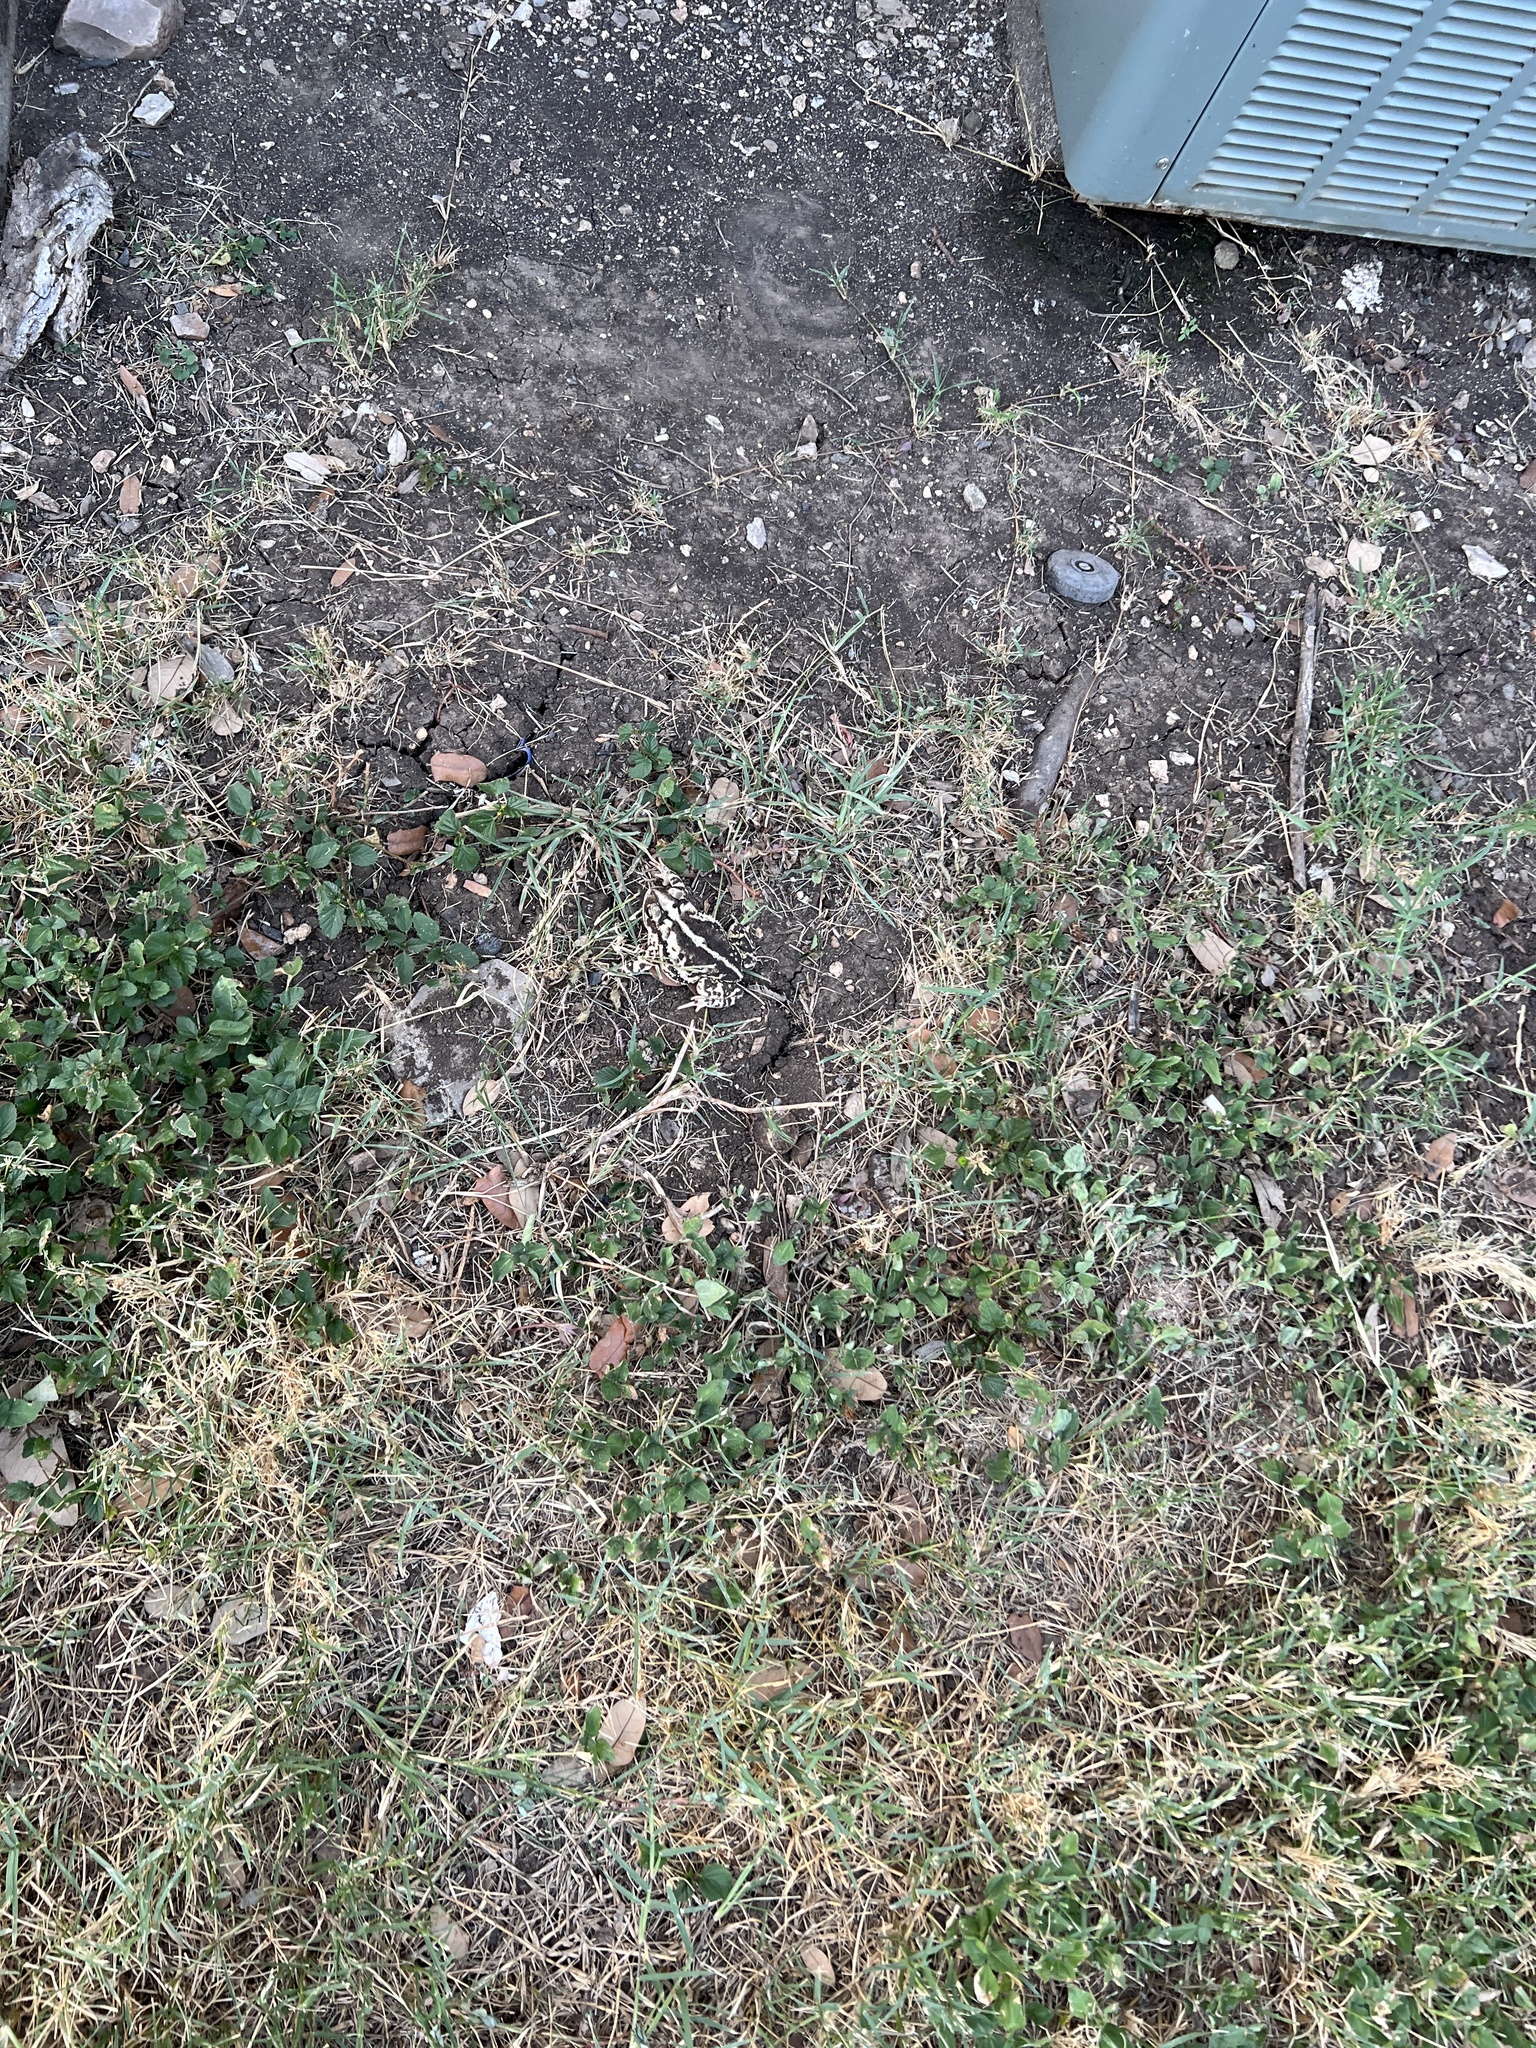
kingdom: Animalia
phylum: Chordata
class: Amphibia
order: Anura
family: Bufonidae
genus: Incilius
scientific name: Incilius nebulifer
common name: Gulf coast toad
